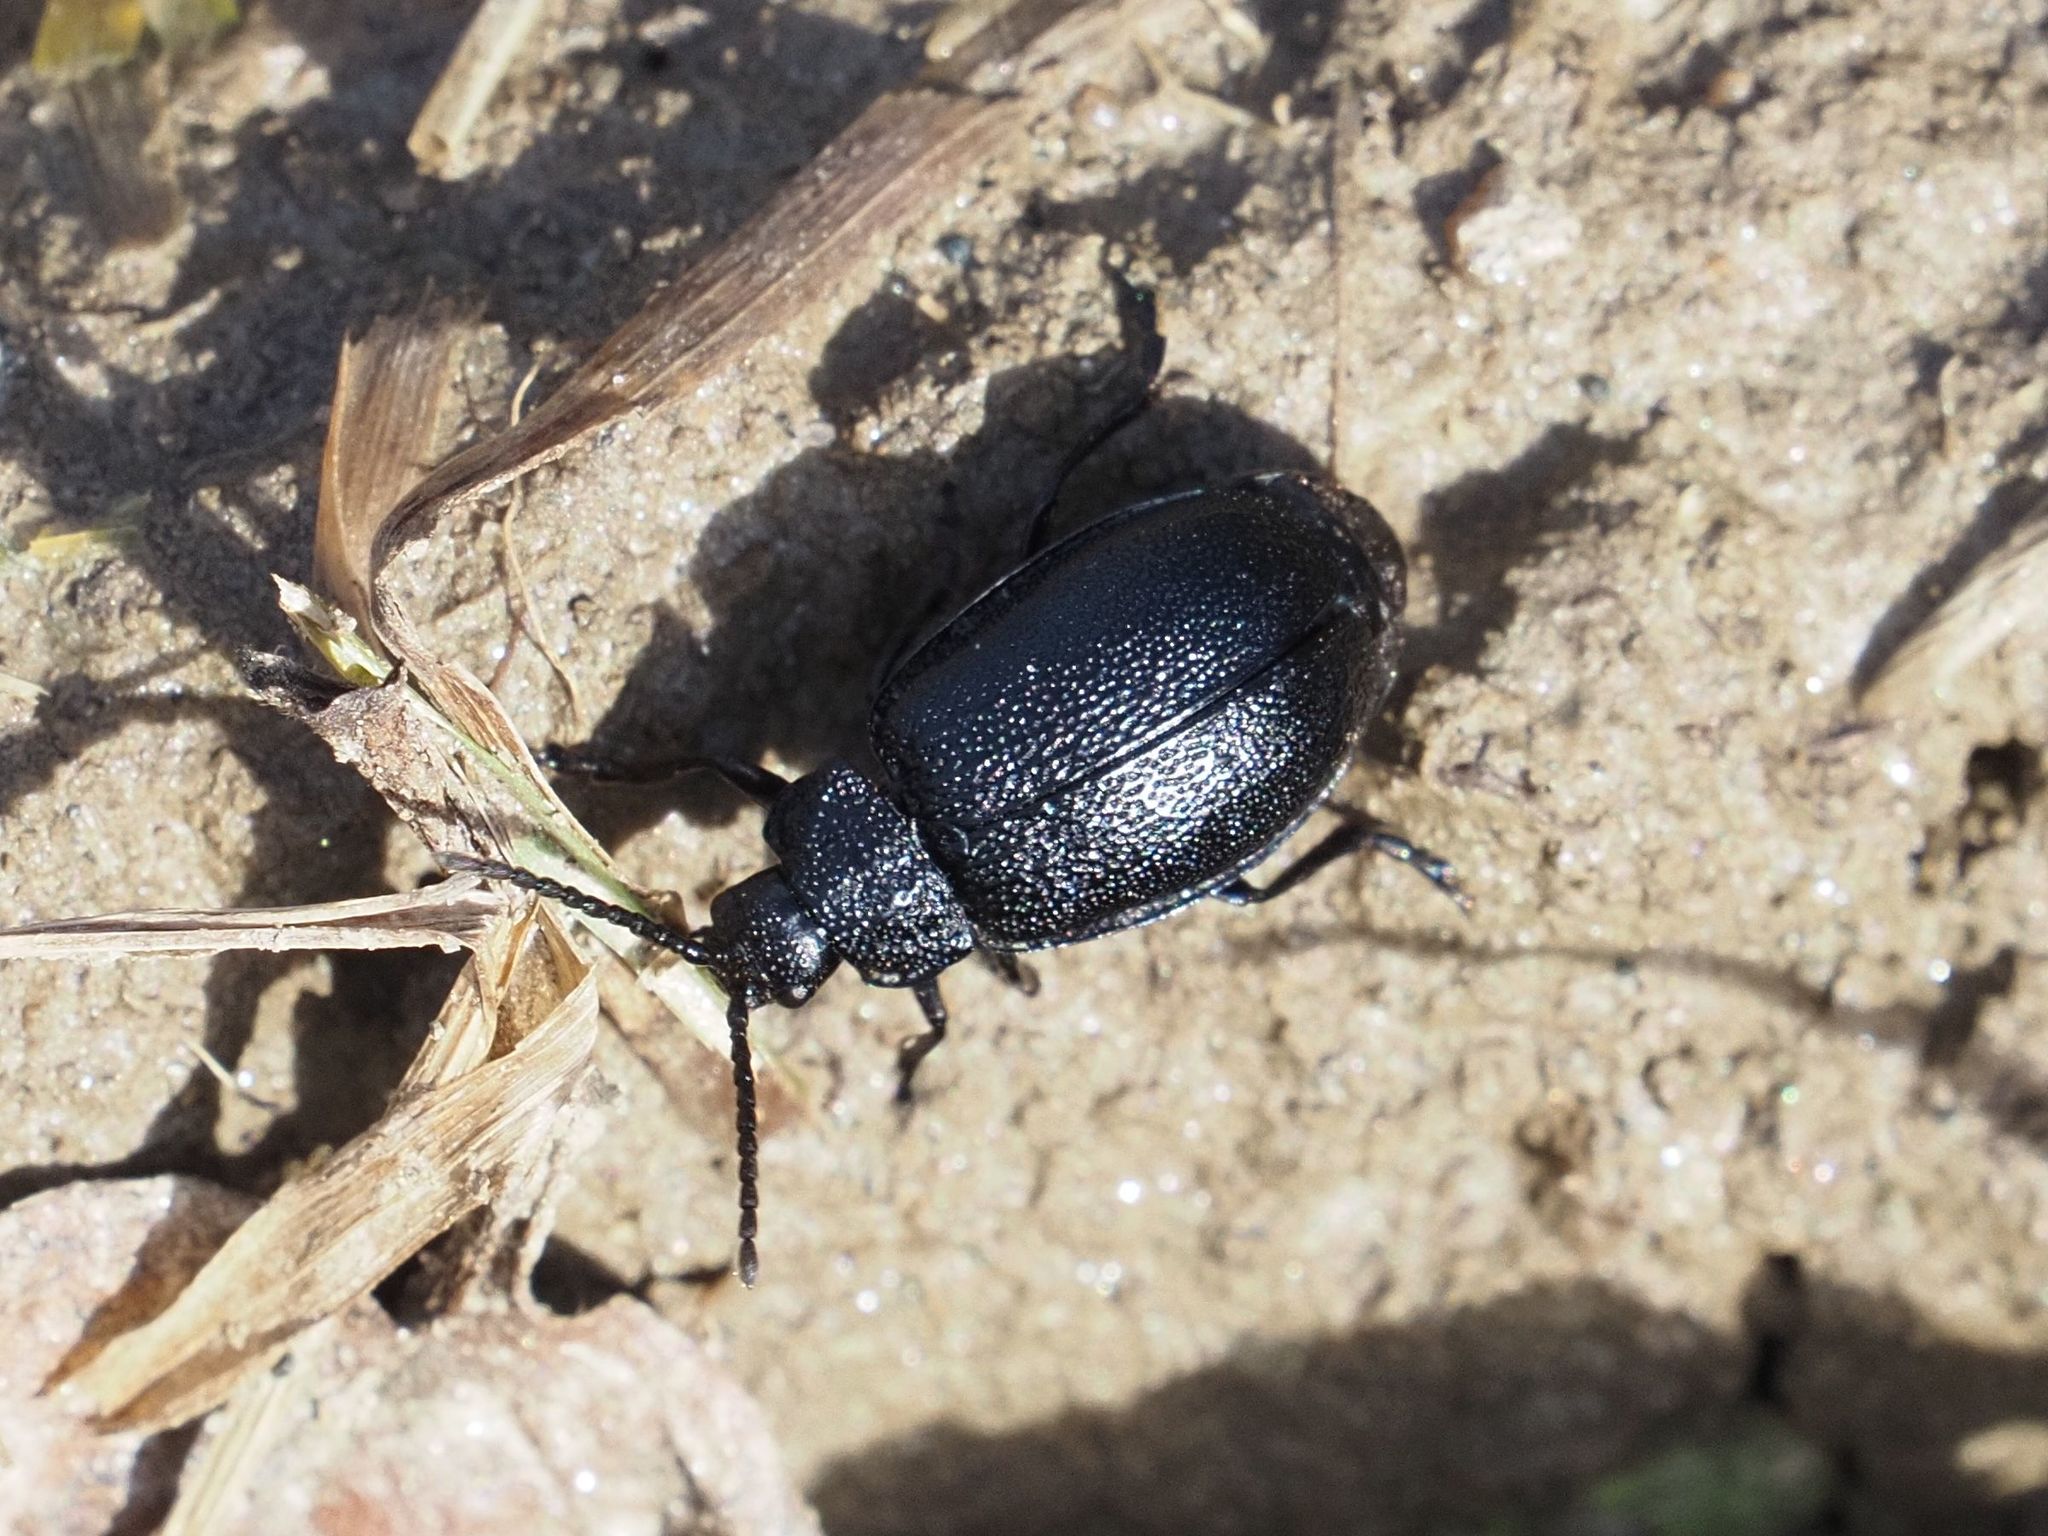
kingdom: Animalia
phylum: Arthropoda
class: Insecta
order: Coleoptera
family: Chrysomelidae
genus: Galeruca
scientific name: Galeruca tanaceti
